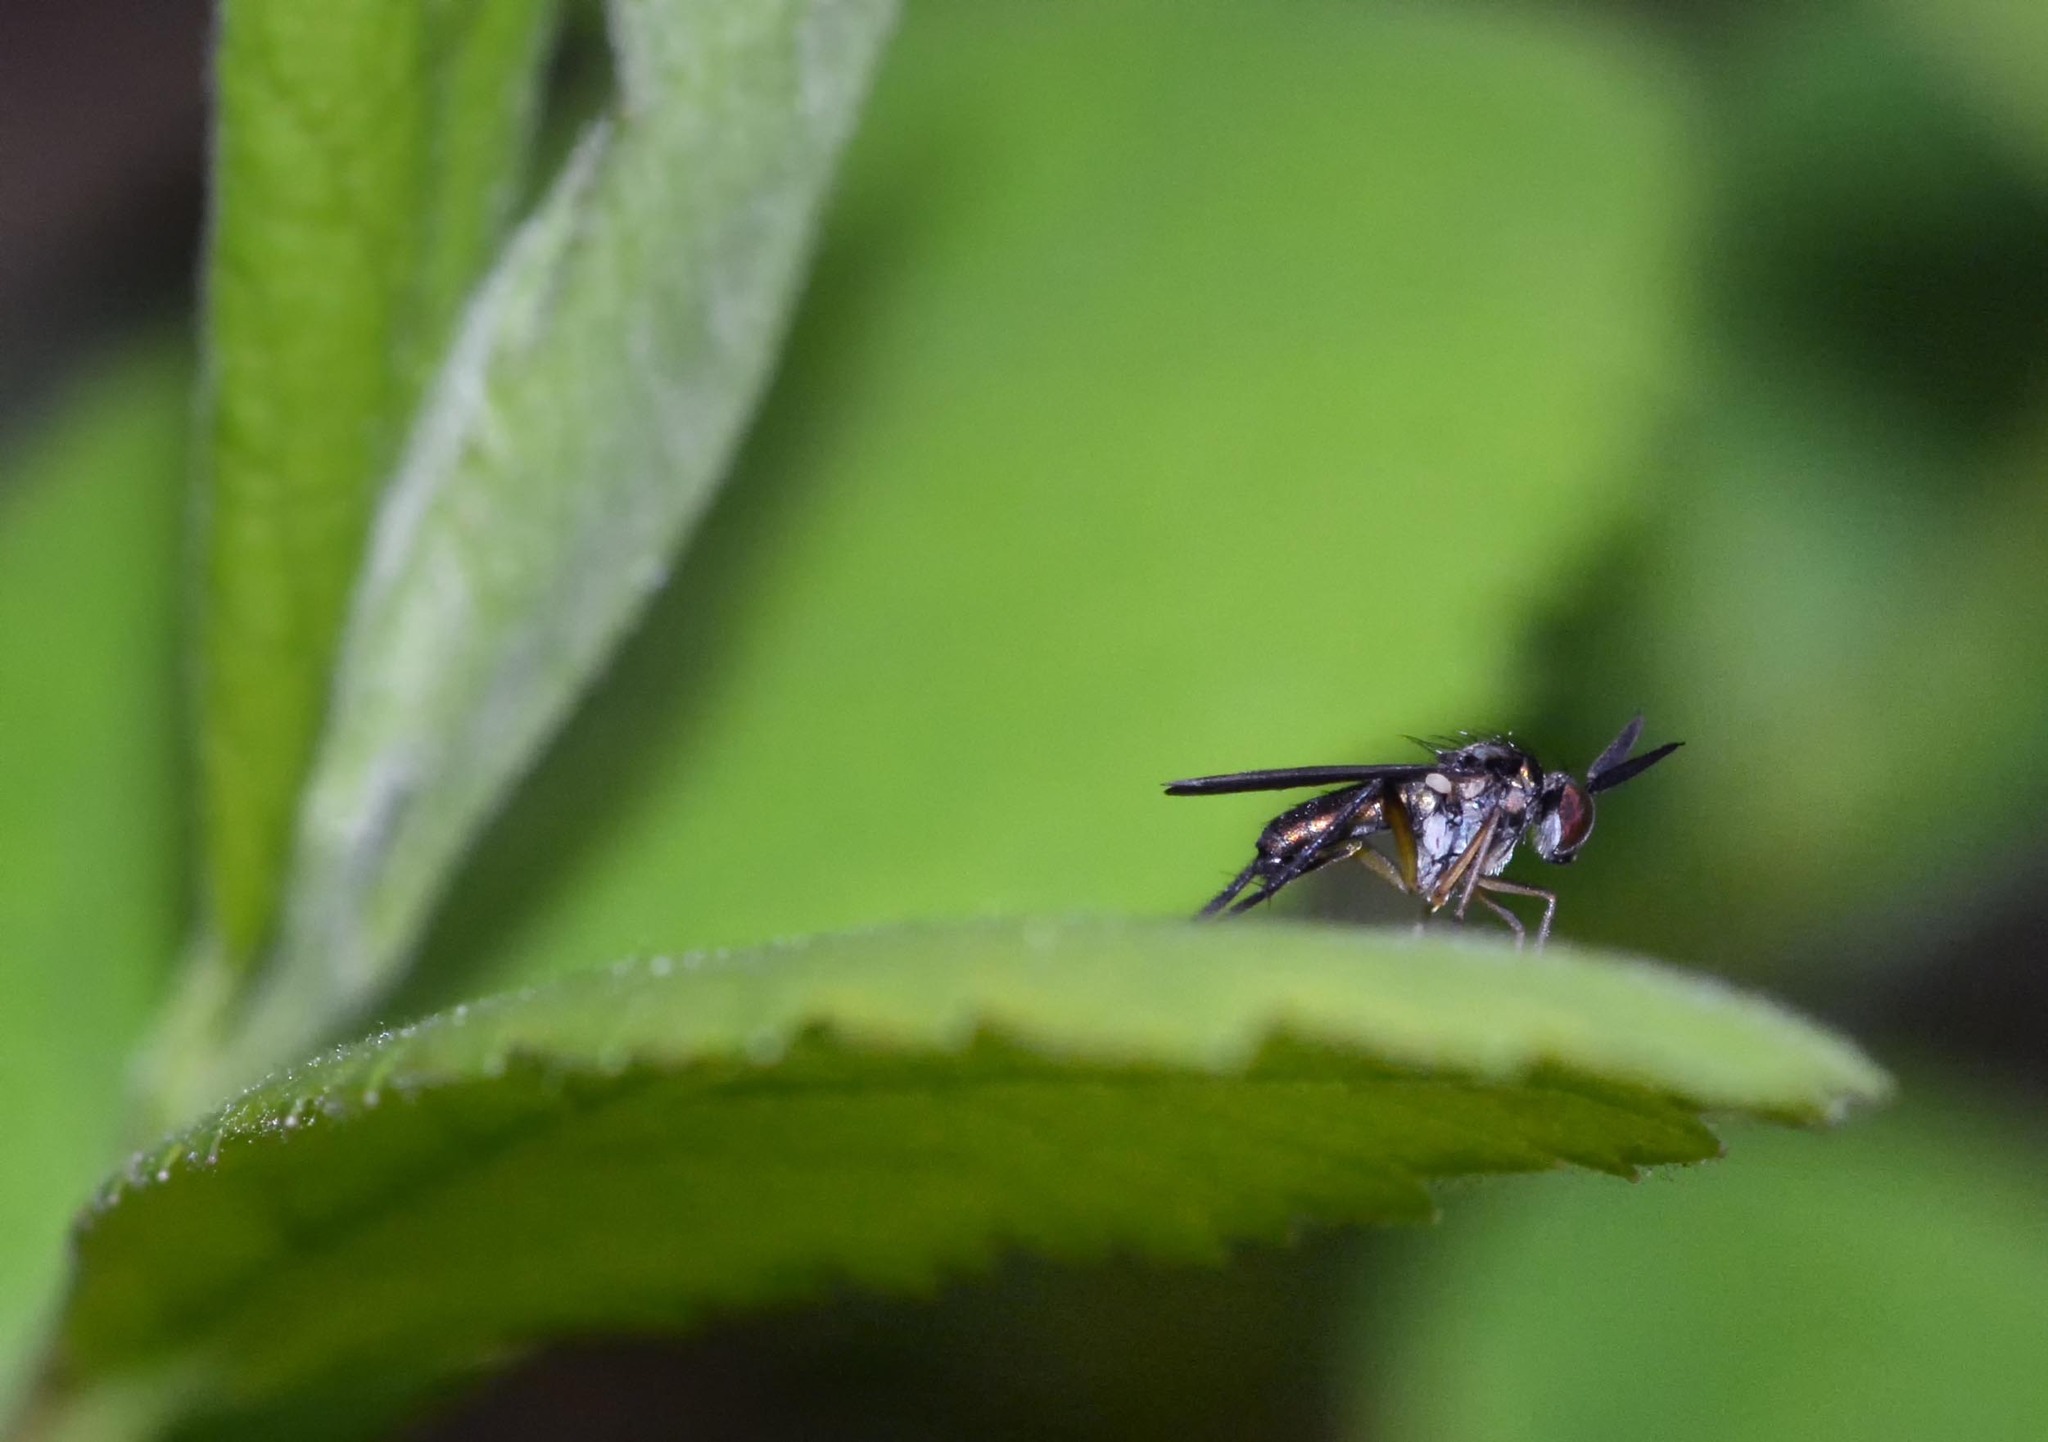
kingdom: Animalia
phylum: Arthropoda
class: Insecta
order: Diptera
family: Dolichopodidae
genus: Rhaphium
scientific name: Rhaphium macrocerum
